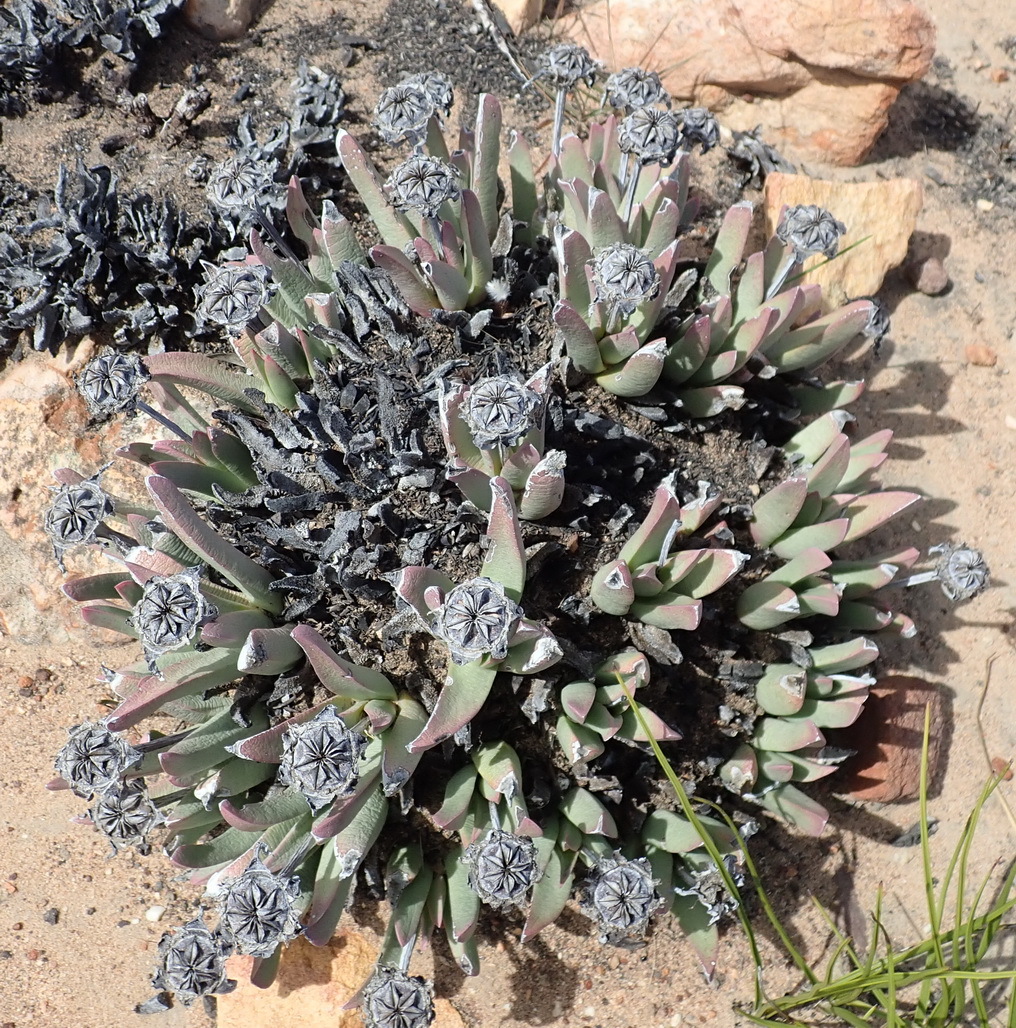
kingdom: Plantae
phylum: Tracheophyta
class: Magnoliopsida
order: Caryophyllales
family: Aizoaceae
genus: Machairophyllum
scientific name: Machairophyllum albidum
